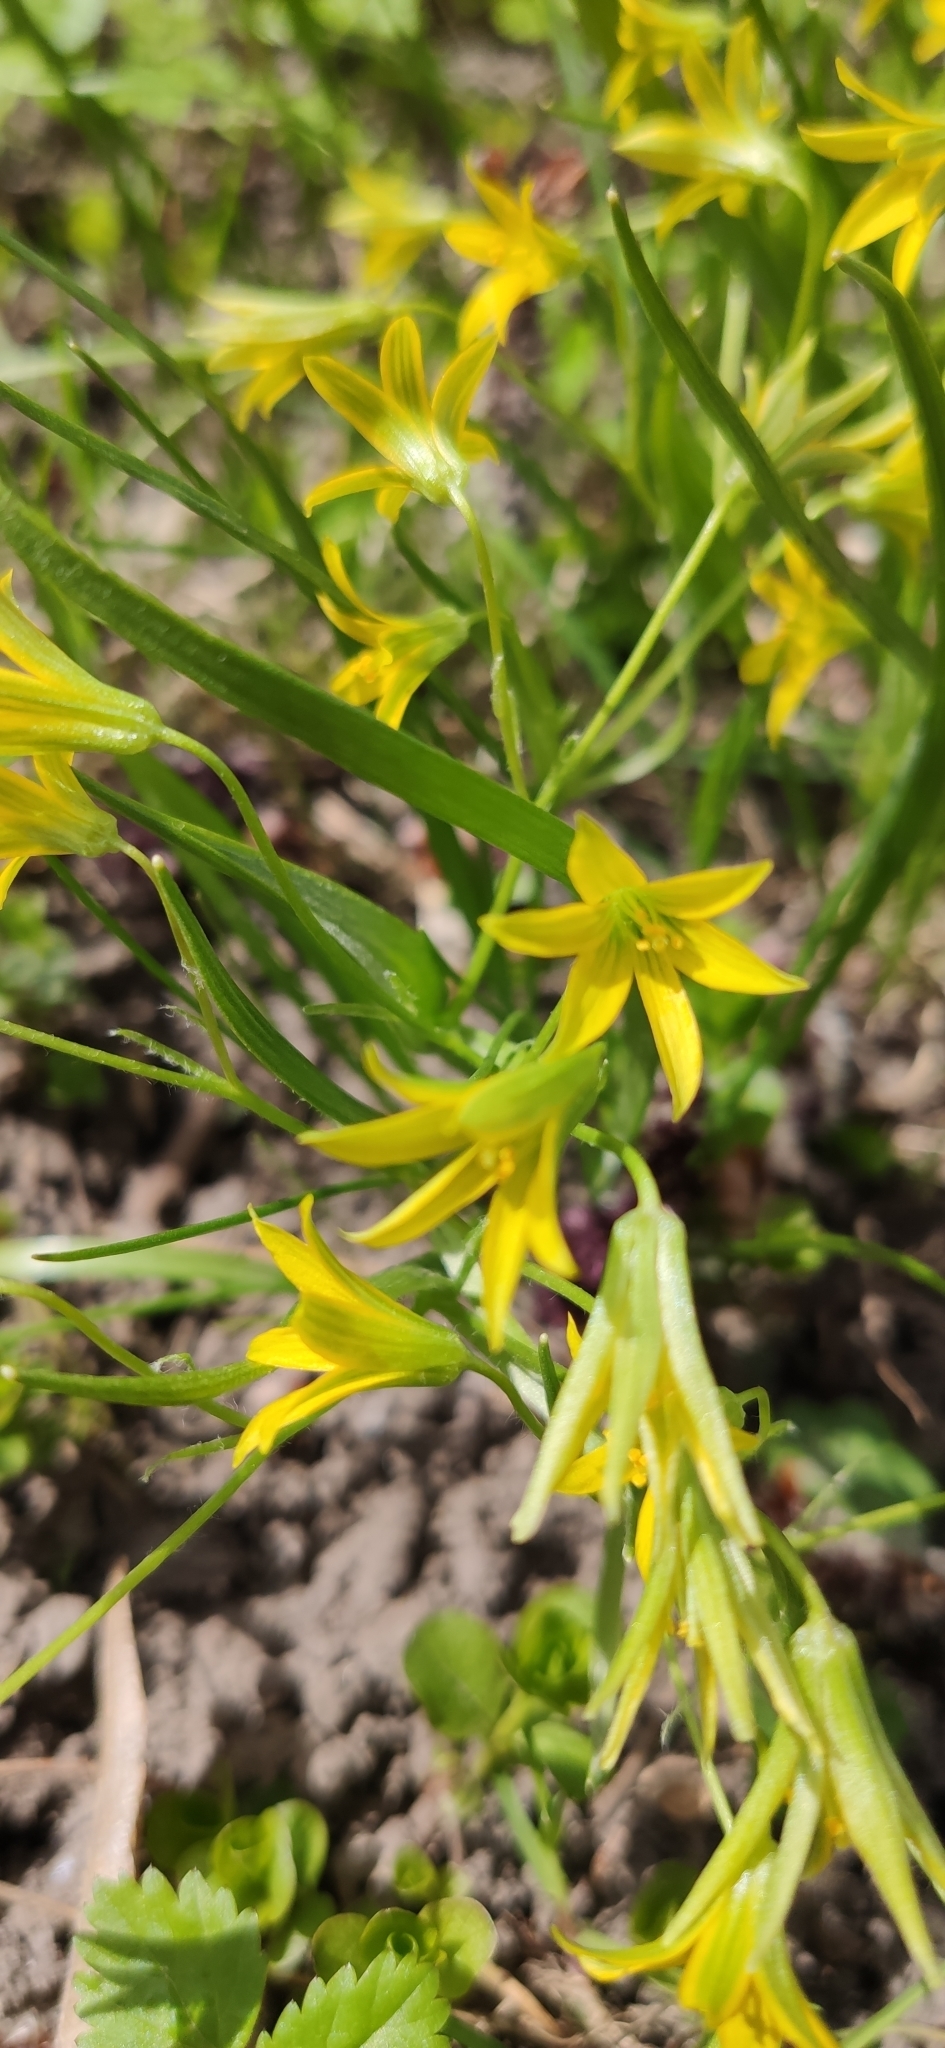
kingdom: Plantae
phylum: Tracheophyta
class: Liliopsida
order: Liliales
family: Liliaceae
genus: Gagea
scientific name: Gagea minima
